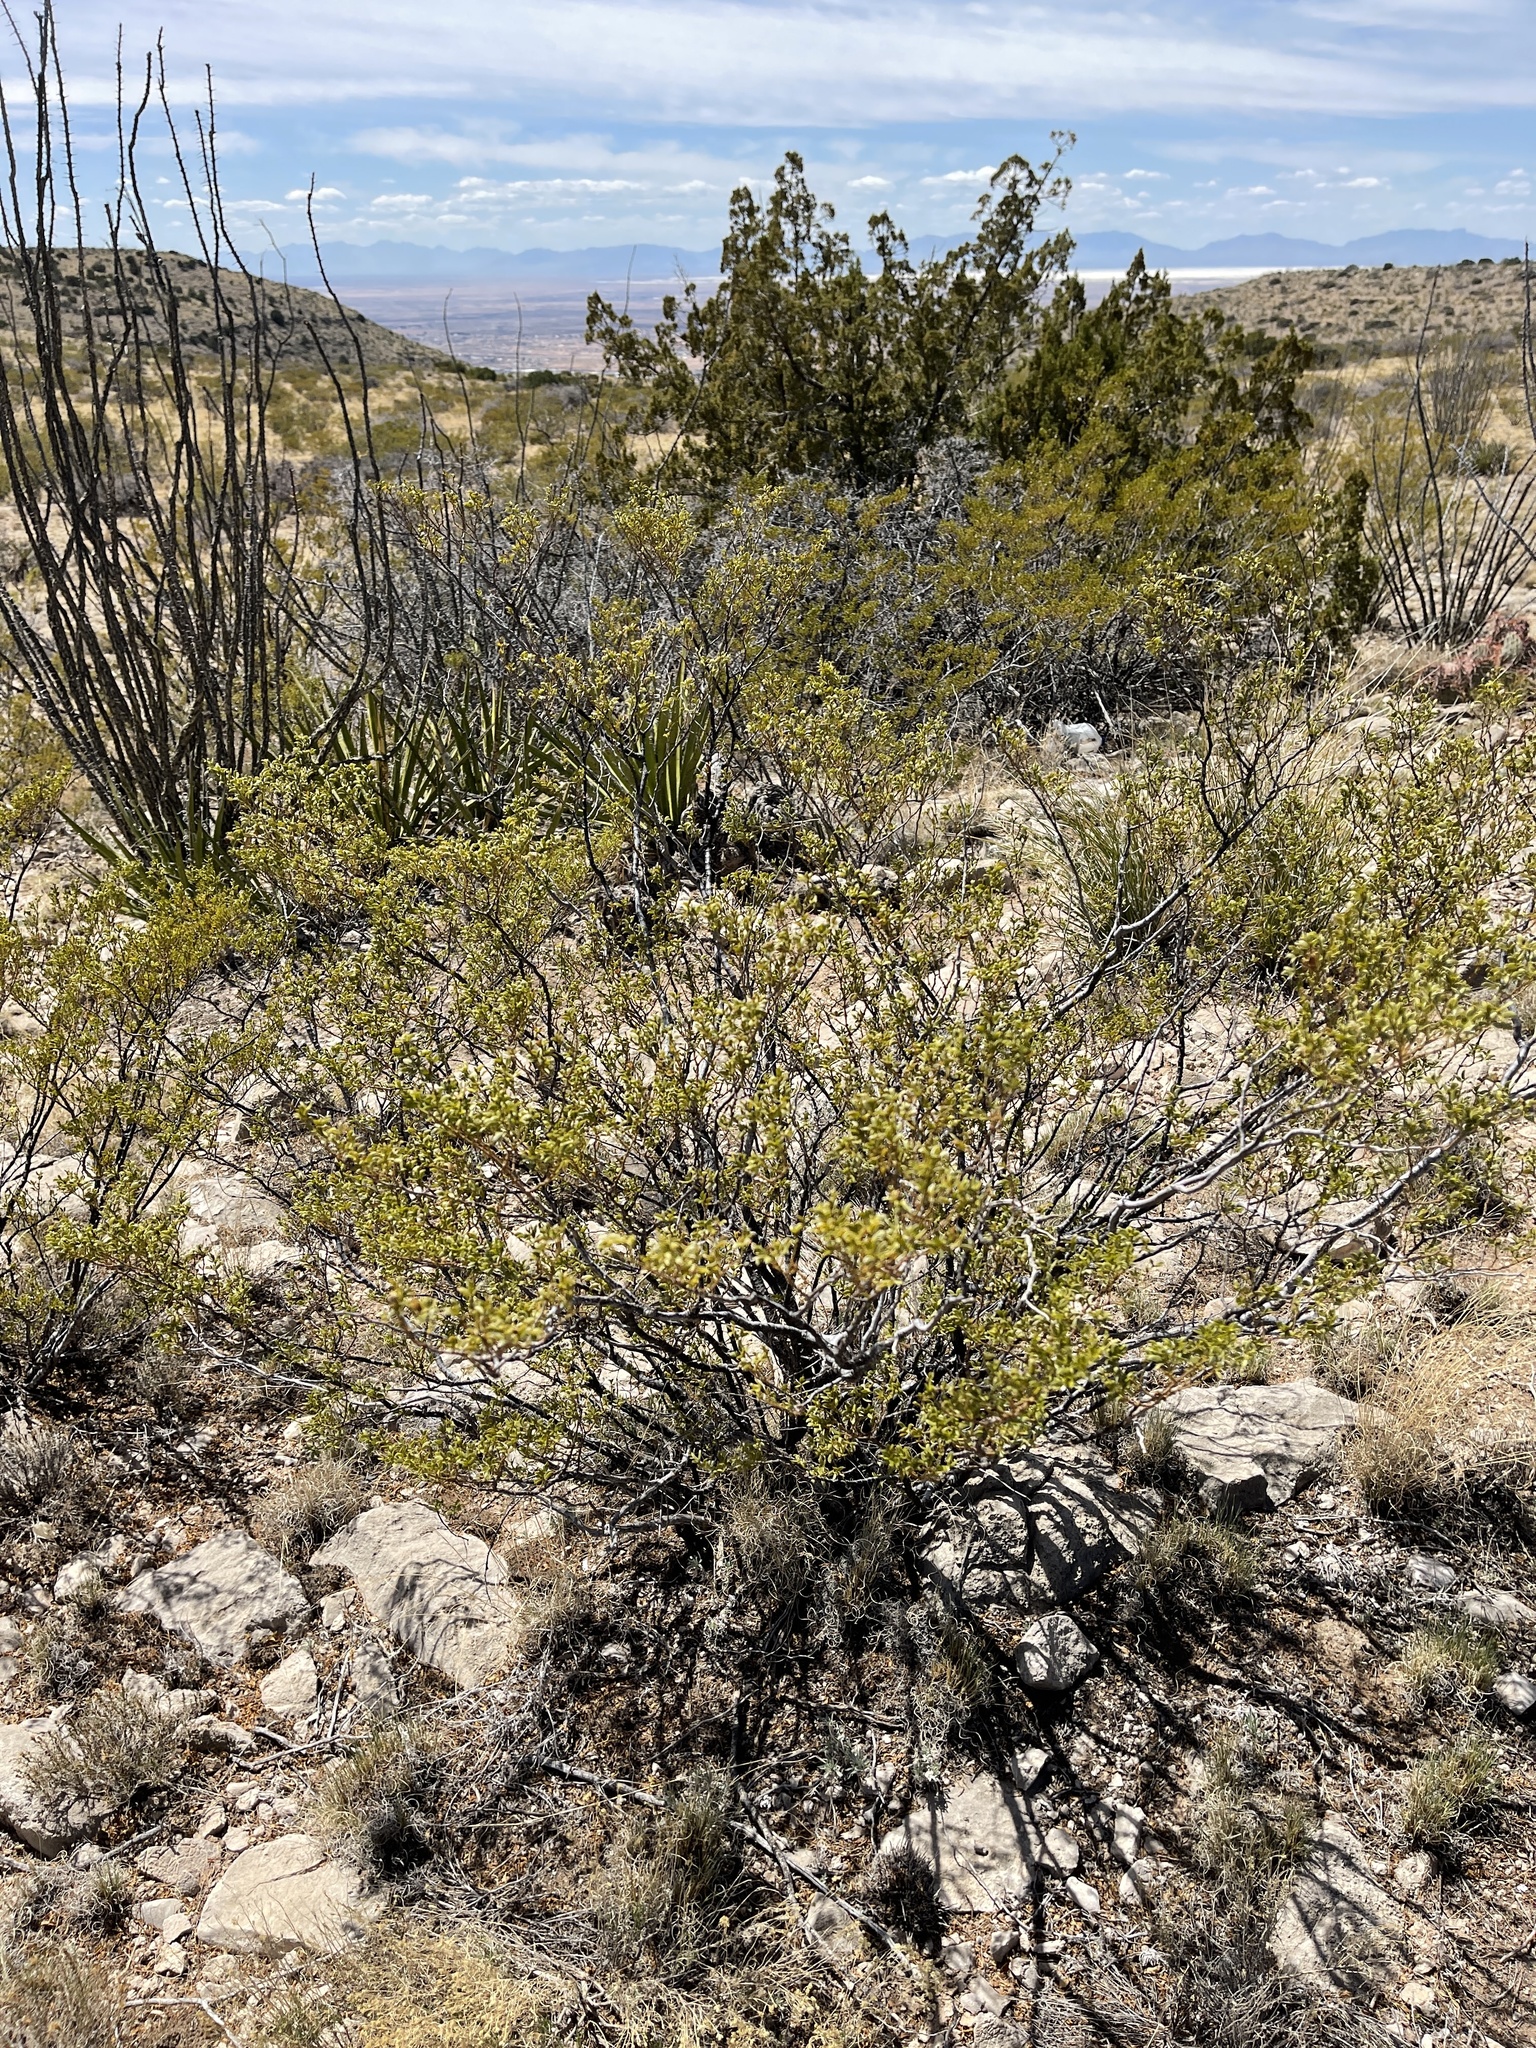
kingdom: Plantae
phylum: Tracheophyta
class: Magnoliopsida
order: Zygophyllales
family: Zygophyllaceae
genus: Larrea
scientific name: Larrea tridentata
